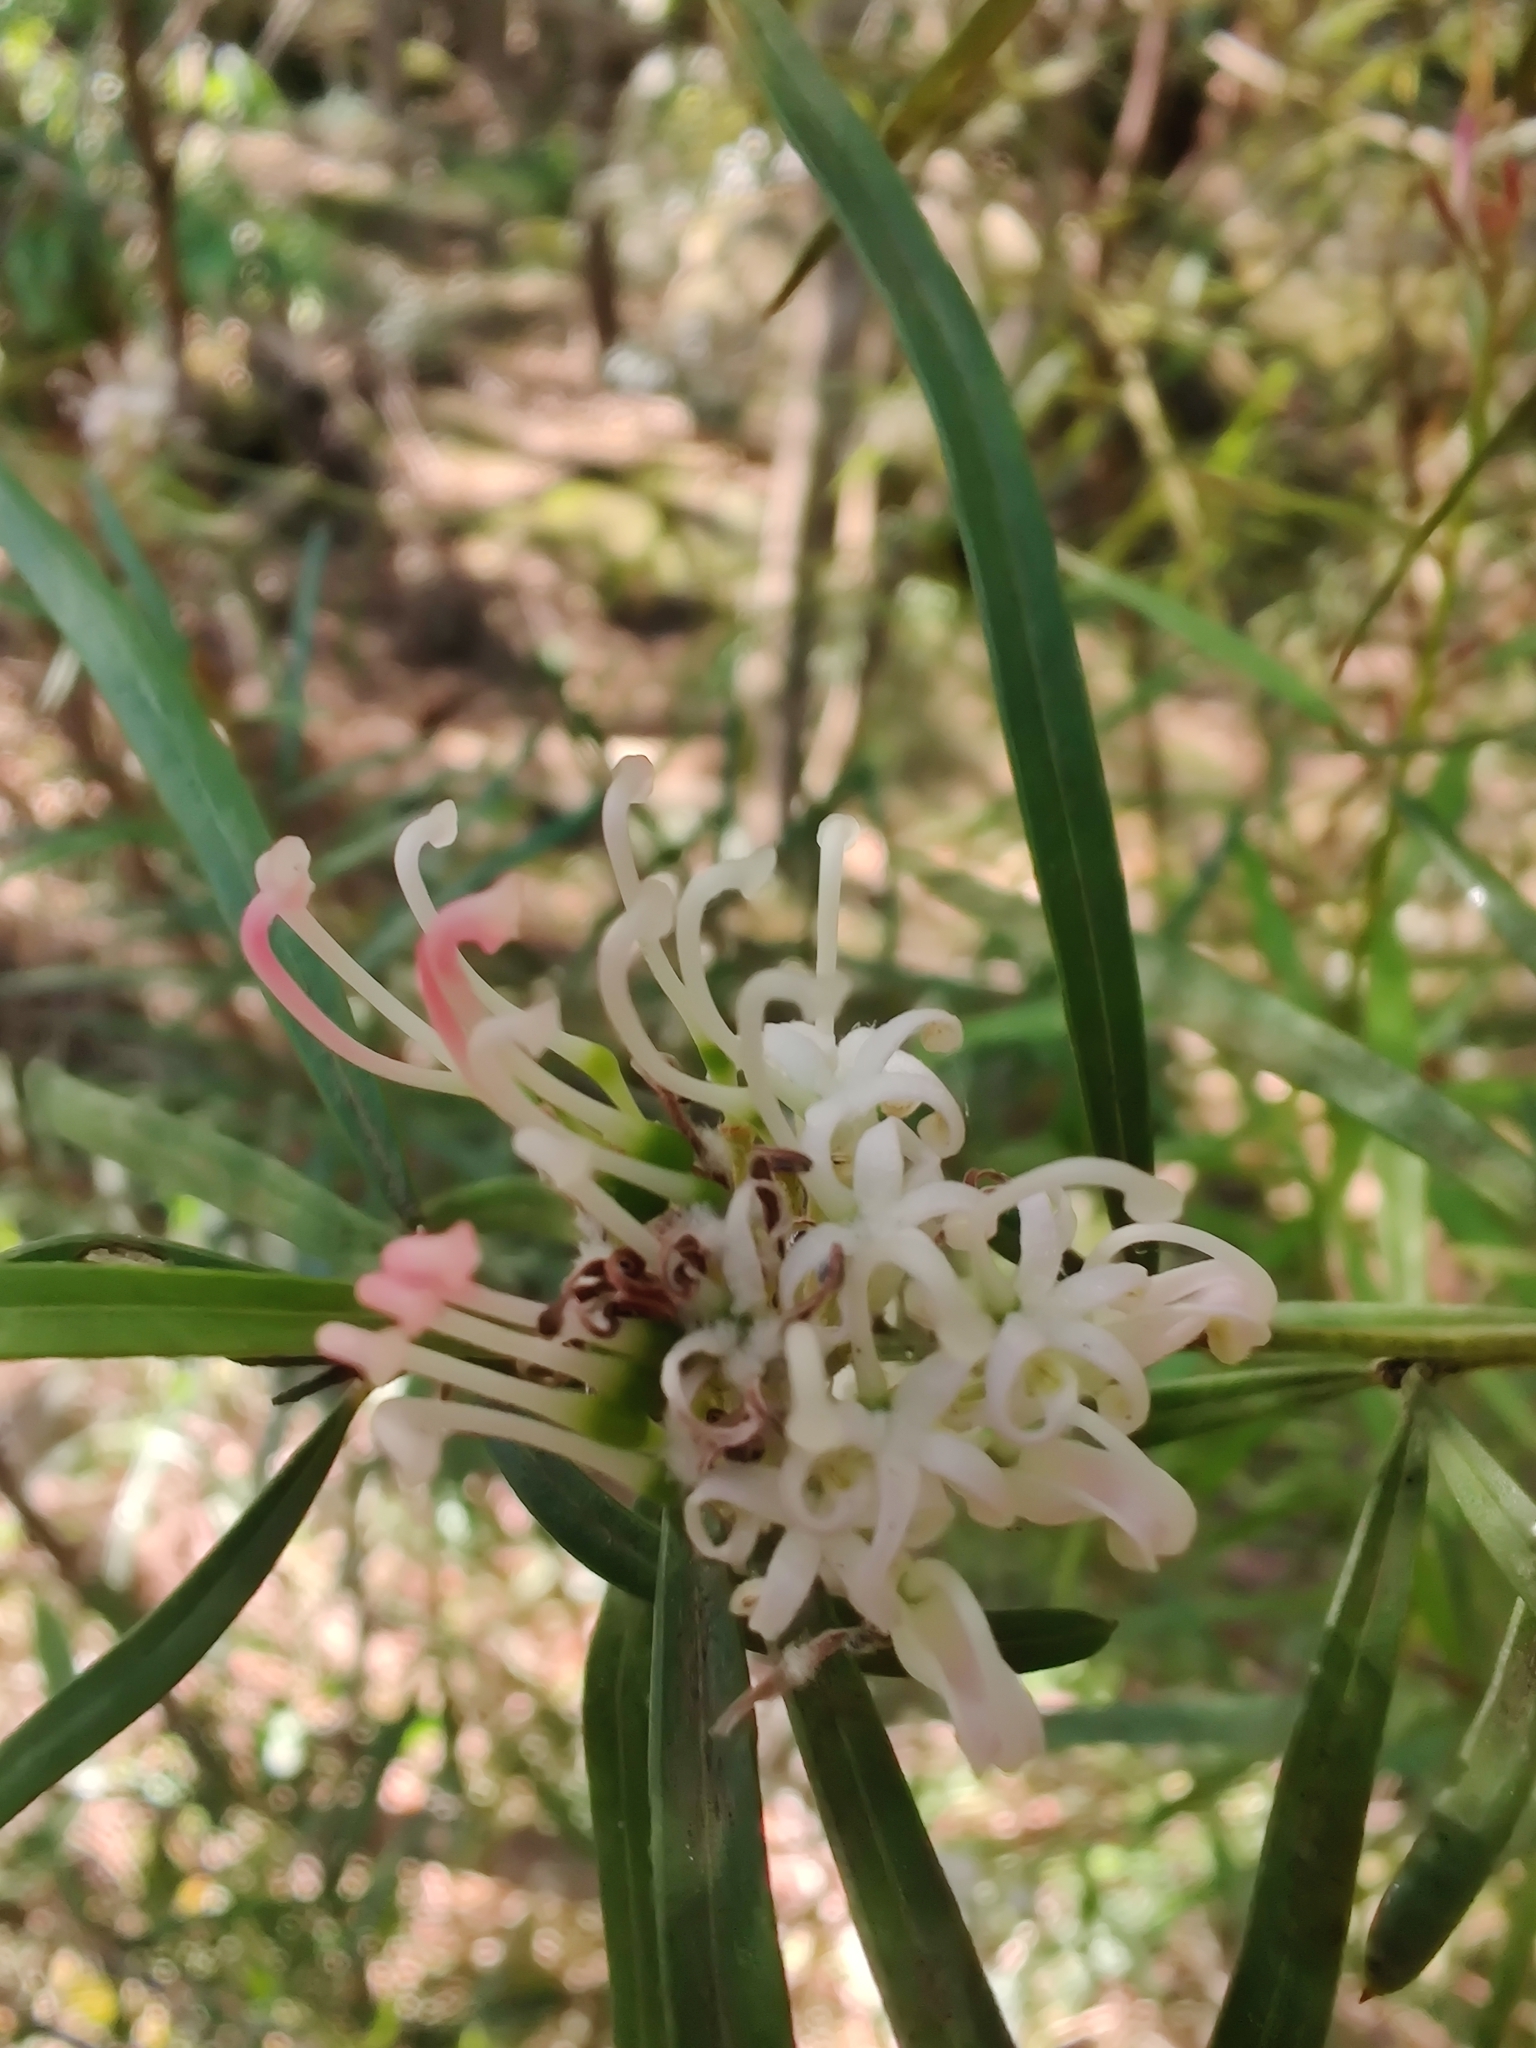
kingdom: Plantae
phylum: Tracheophyta
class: Magnoliopsida
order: Proteales
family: Proteaceae
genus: Grevillea
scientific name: Grevillea linearifolia
